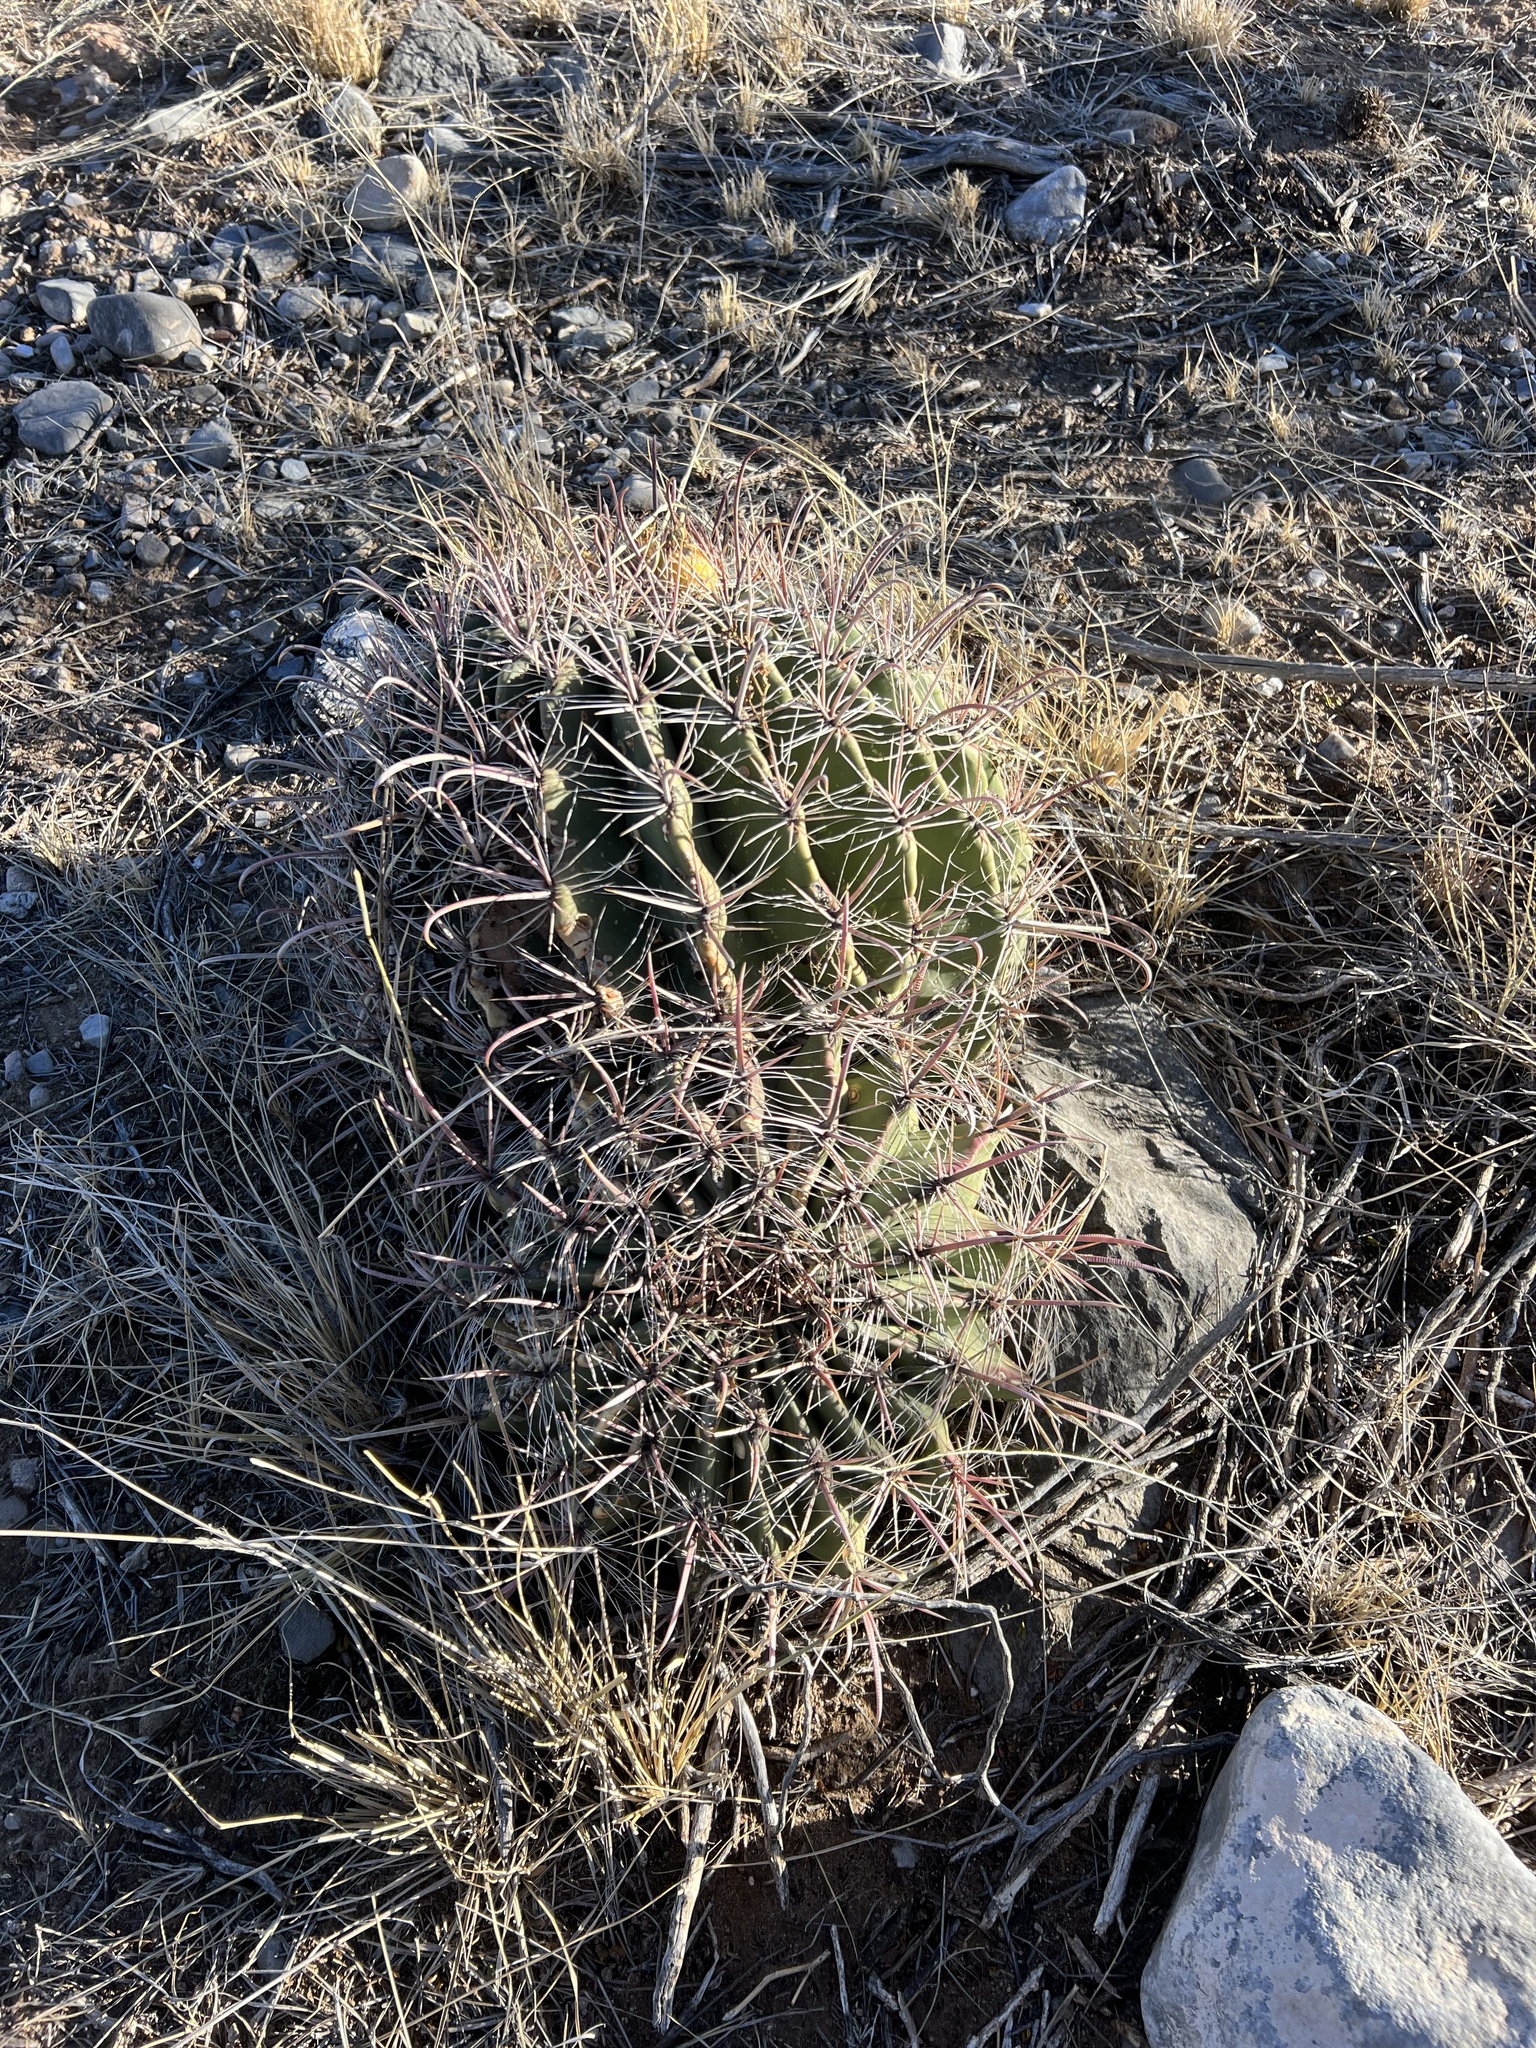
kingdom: Plantae
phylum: Tracheophyta
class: Magnoliopsida
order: Caryophyllales
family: Cactaceae
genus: Ferocactus
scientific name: Ferocactus wislizeni
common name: Candy barrel cactus
